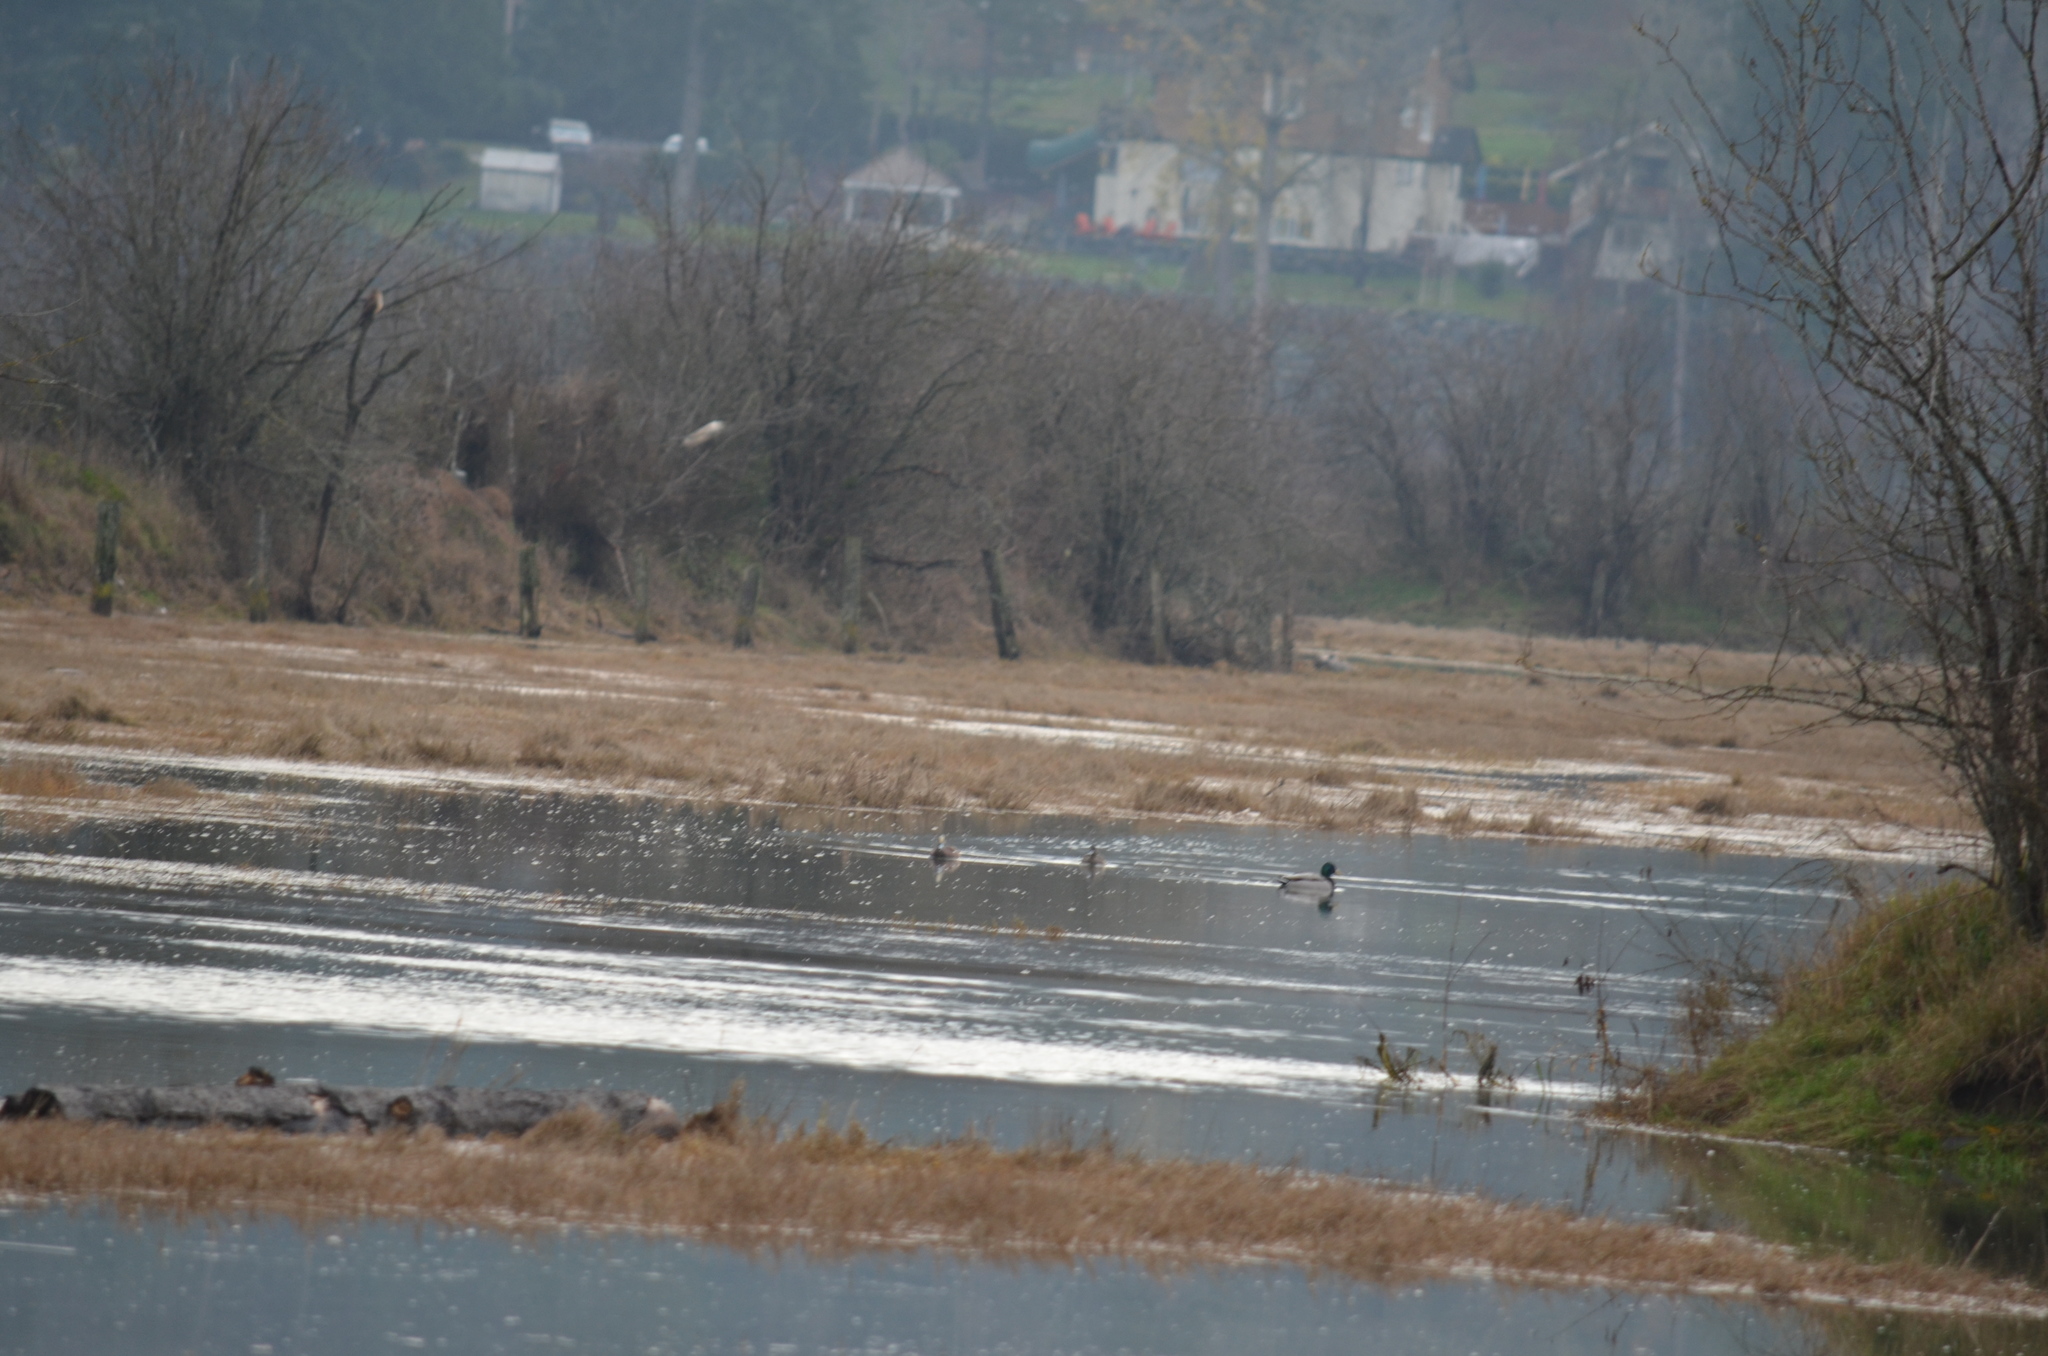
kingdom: Animalia
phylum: Chordata
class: Aves
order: Anseriformes
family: Anatidae
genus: Anas
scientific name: Anas platyrhynchos
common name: Mallard
